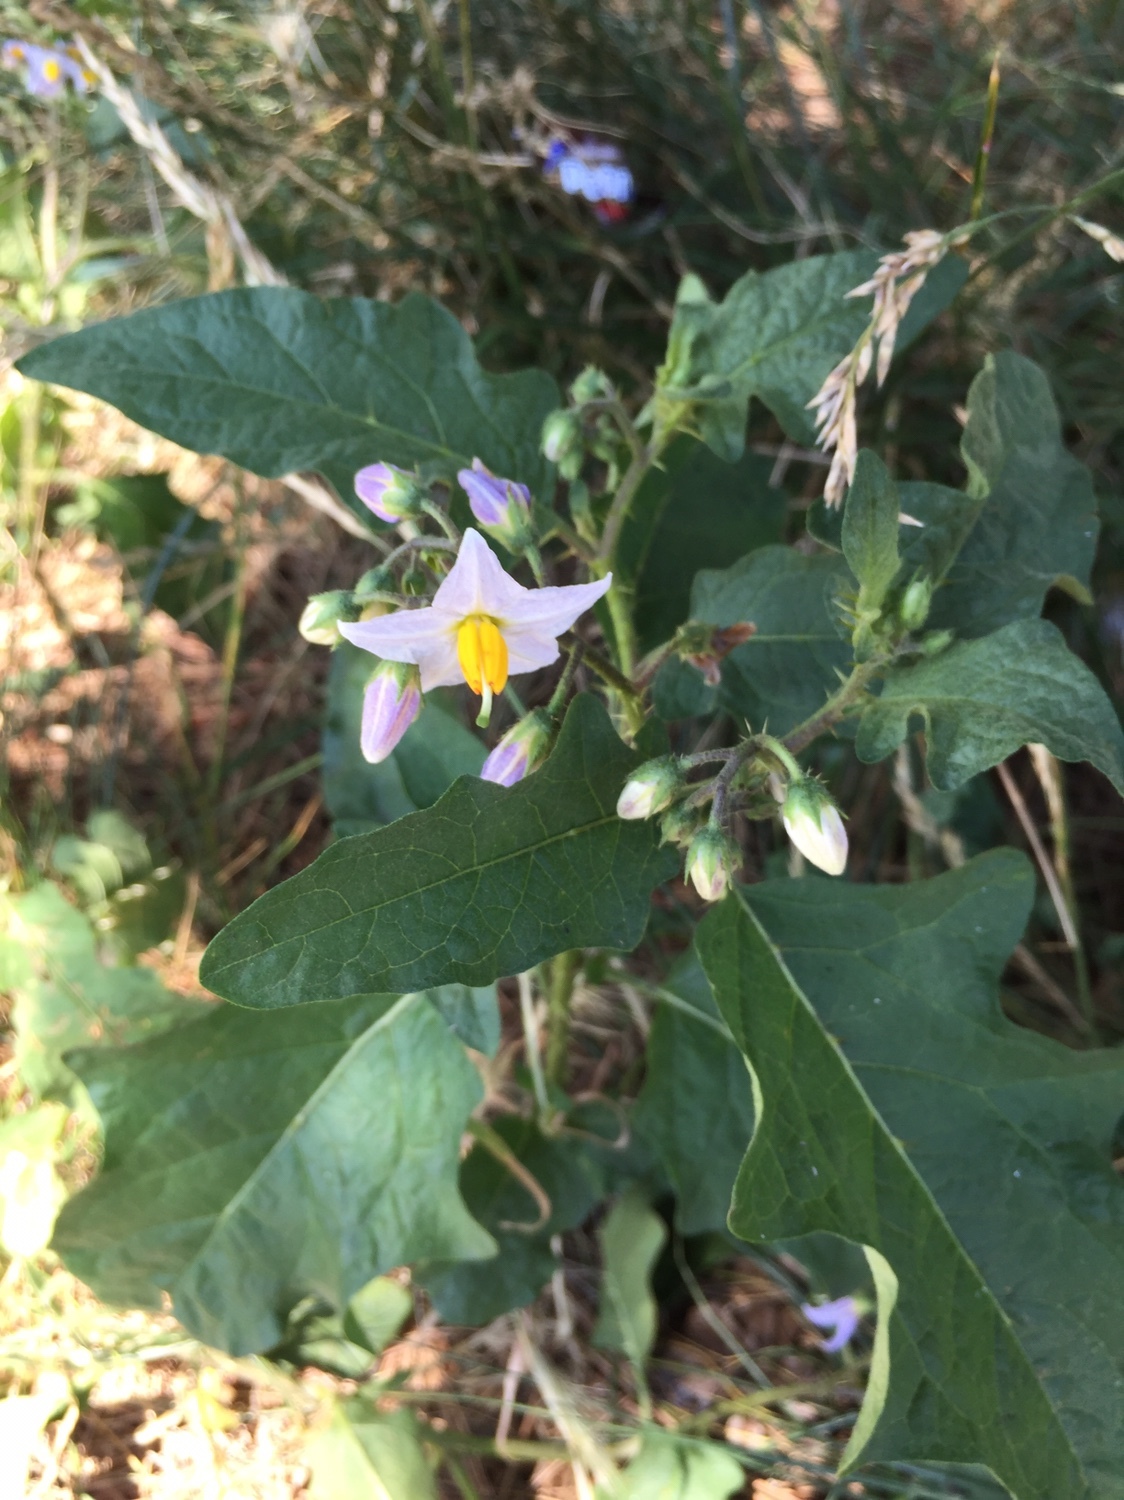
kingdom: Plantae
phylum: Tracheophyta
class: Magnoliopsida
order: Solanales
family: Solanaceae
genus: Solanum
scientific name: Solanum carolinense
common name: Horse-nettle
